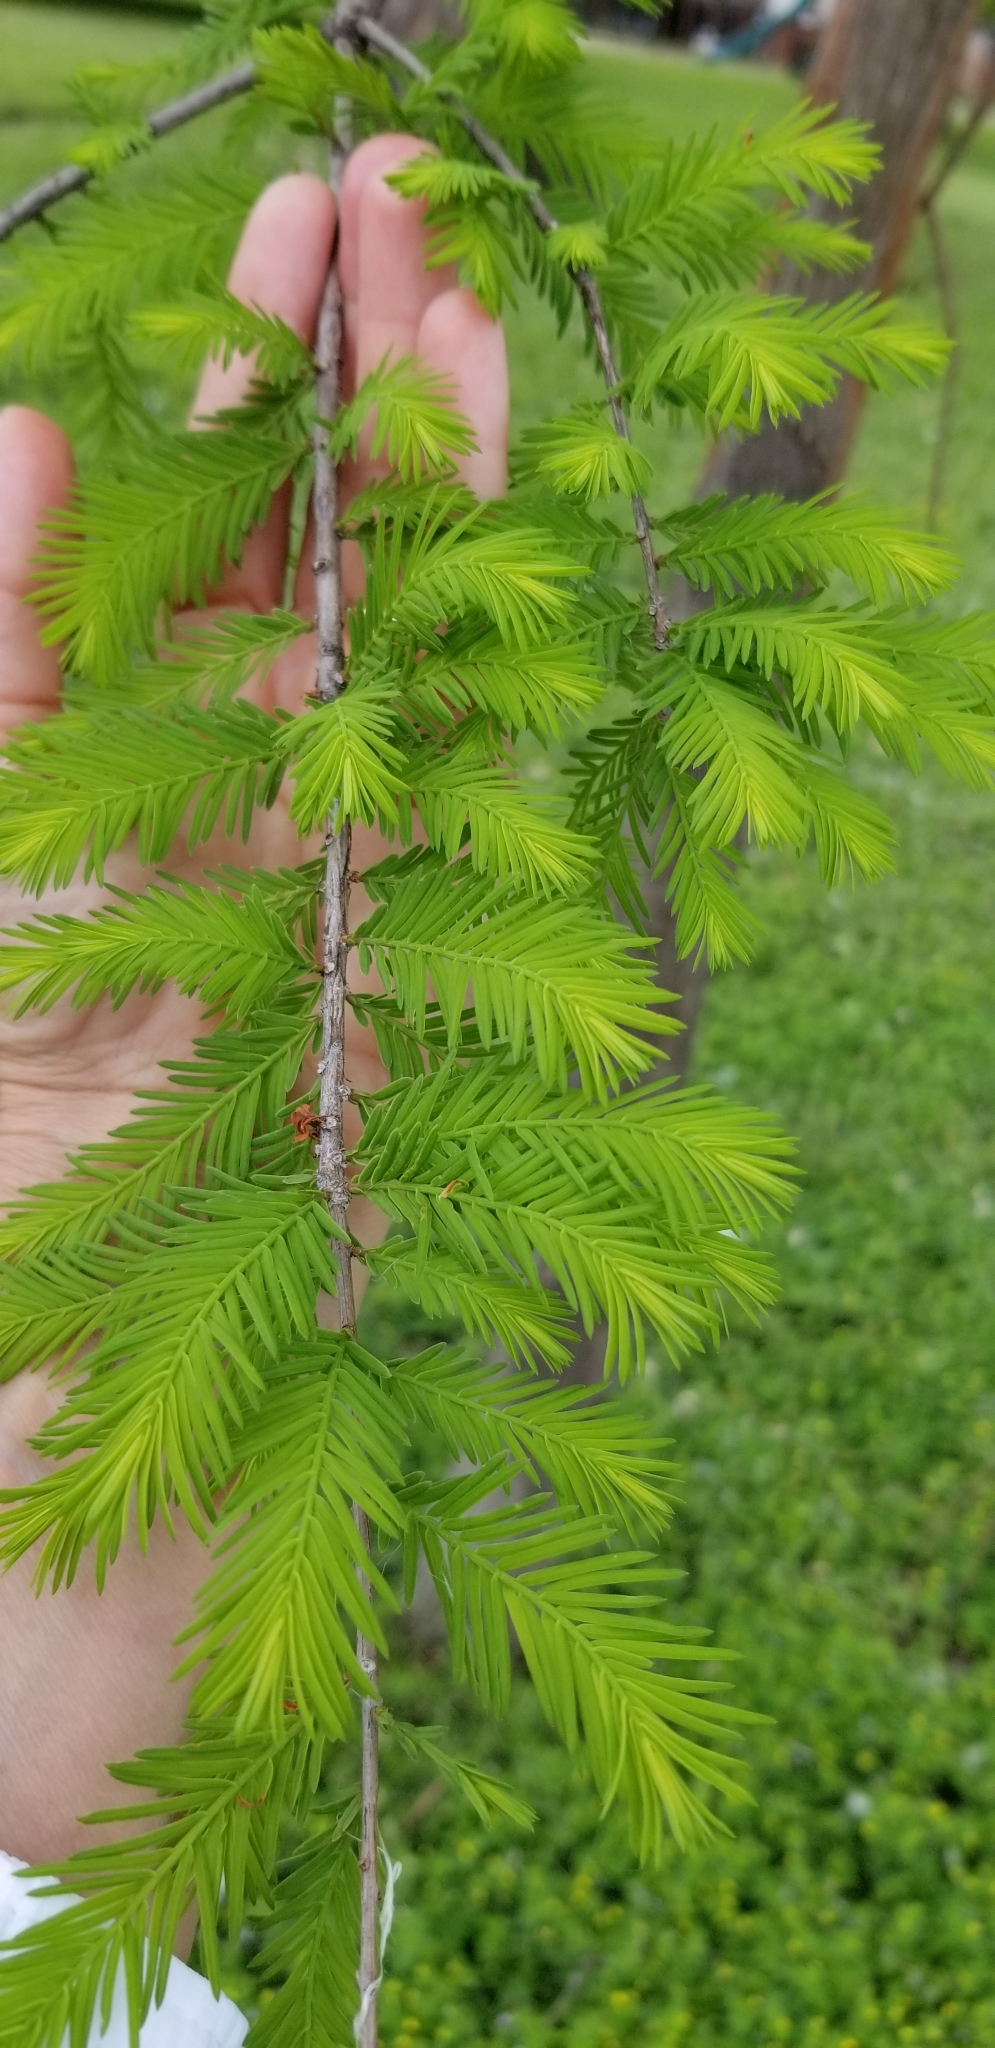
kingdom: Plantae
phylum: Tracheophyta
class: Pinopsida
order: Pinales
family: Cupressaceae
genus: Taxodium
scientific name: Taxodium distichum
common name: Bald cypress
